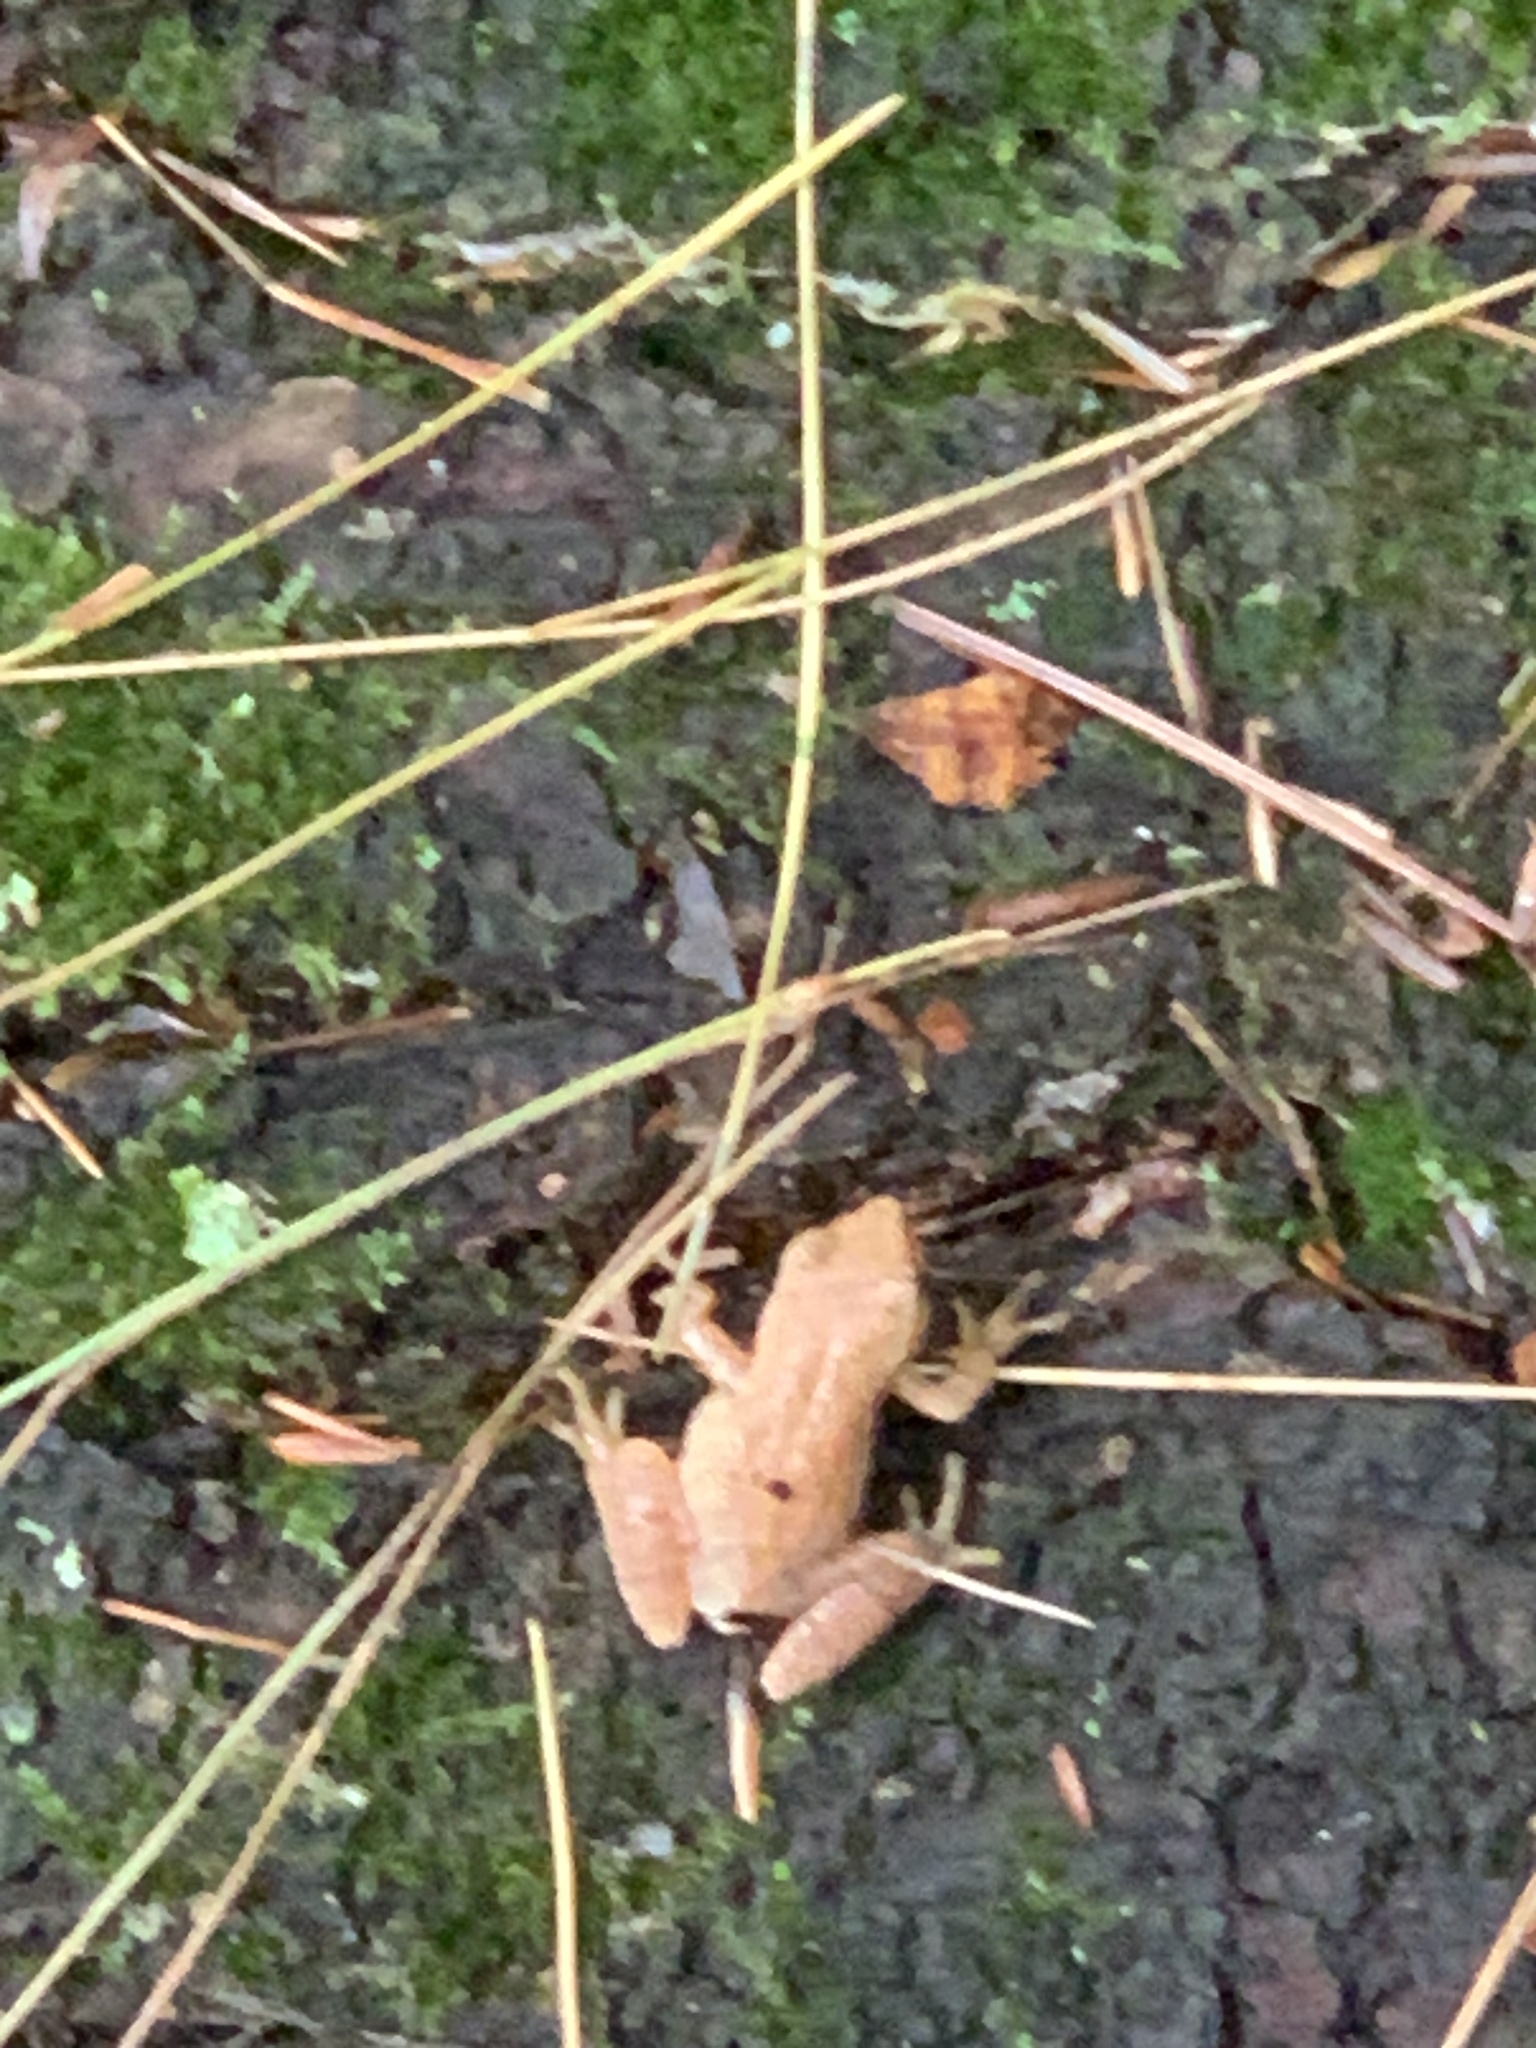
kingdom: Animalia
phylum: Chordata
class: Amphibia
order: Anura
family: Hylidae
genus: Pseudacris
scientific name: Pseudacris crucifer
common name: Spring peeper
